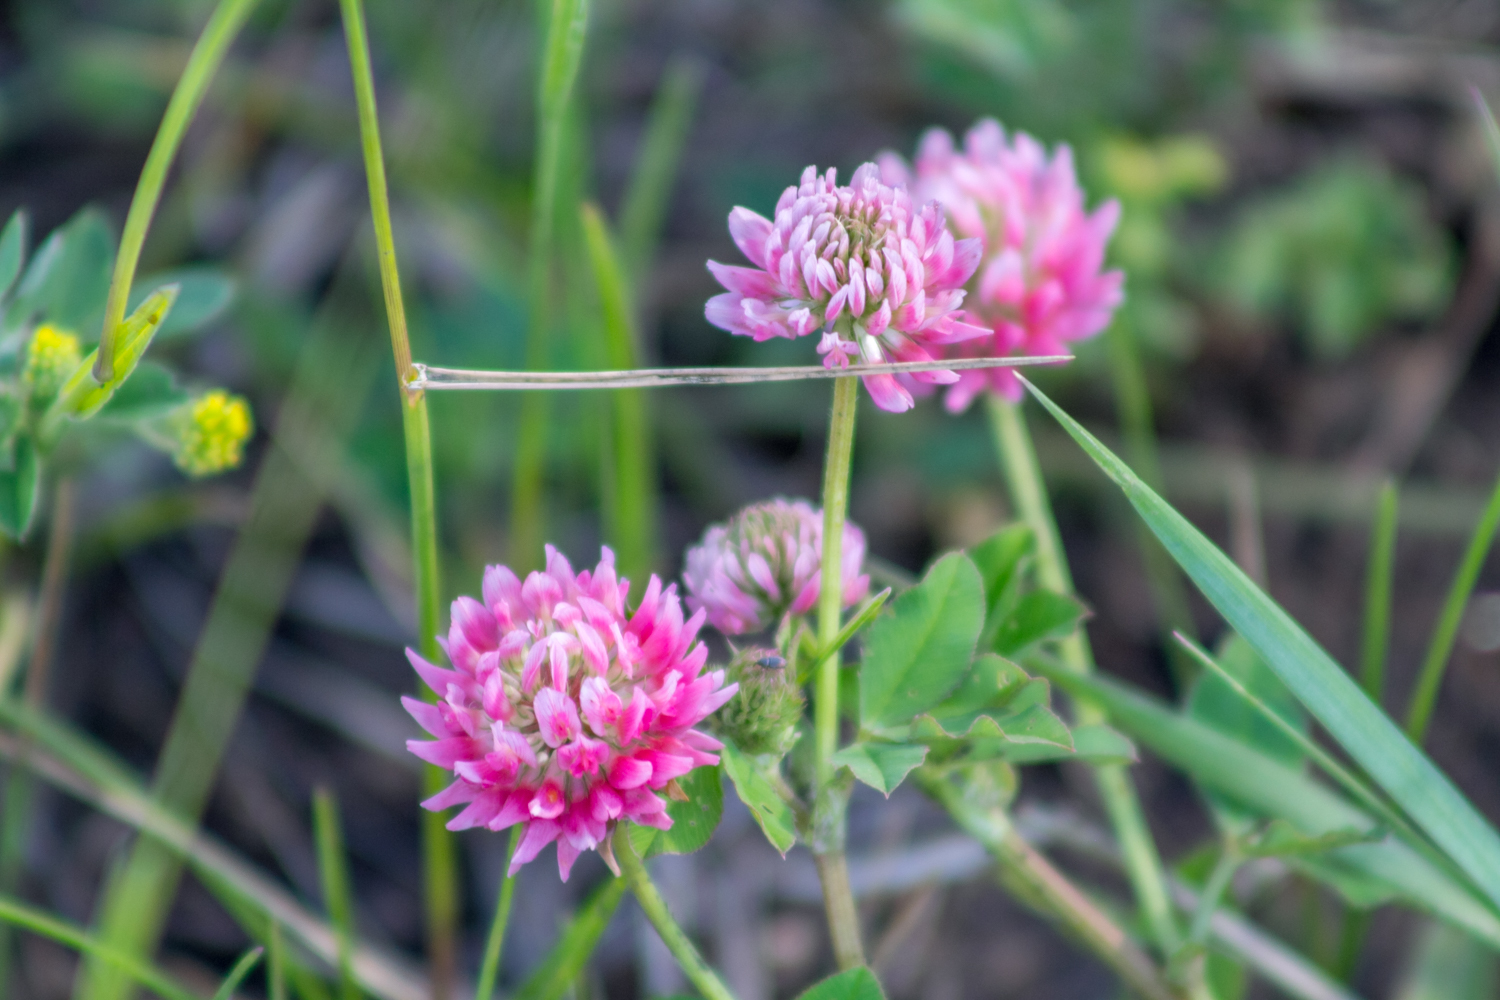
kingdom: Plantae
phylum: Tracheophyta
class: Magnoliopsida
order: Fabales
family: Fabaceae
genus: Trifolium
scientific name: Trifolium hybridum
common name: Alsike clover
